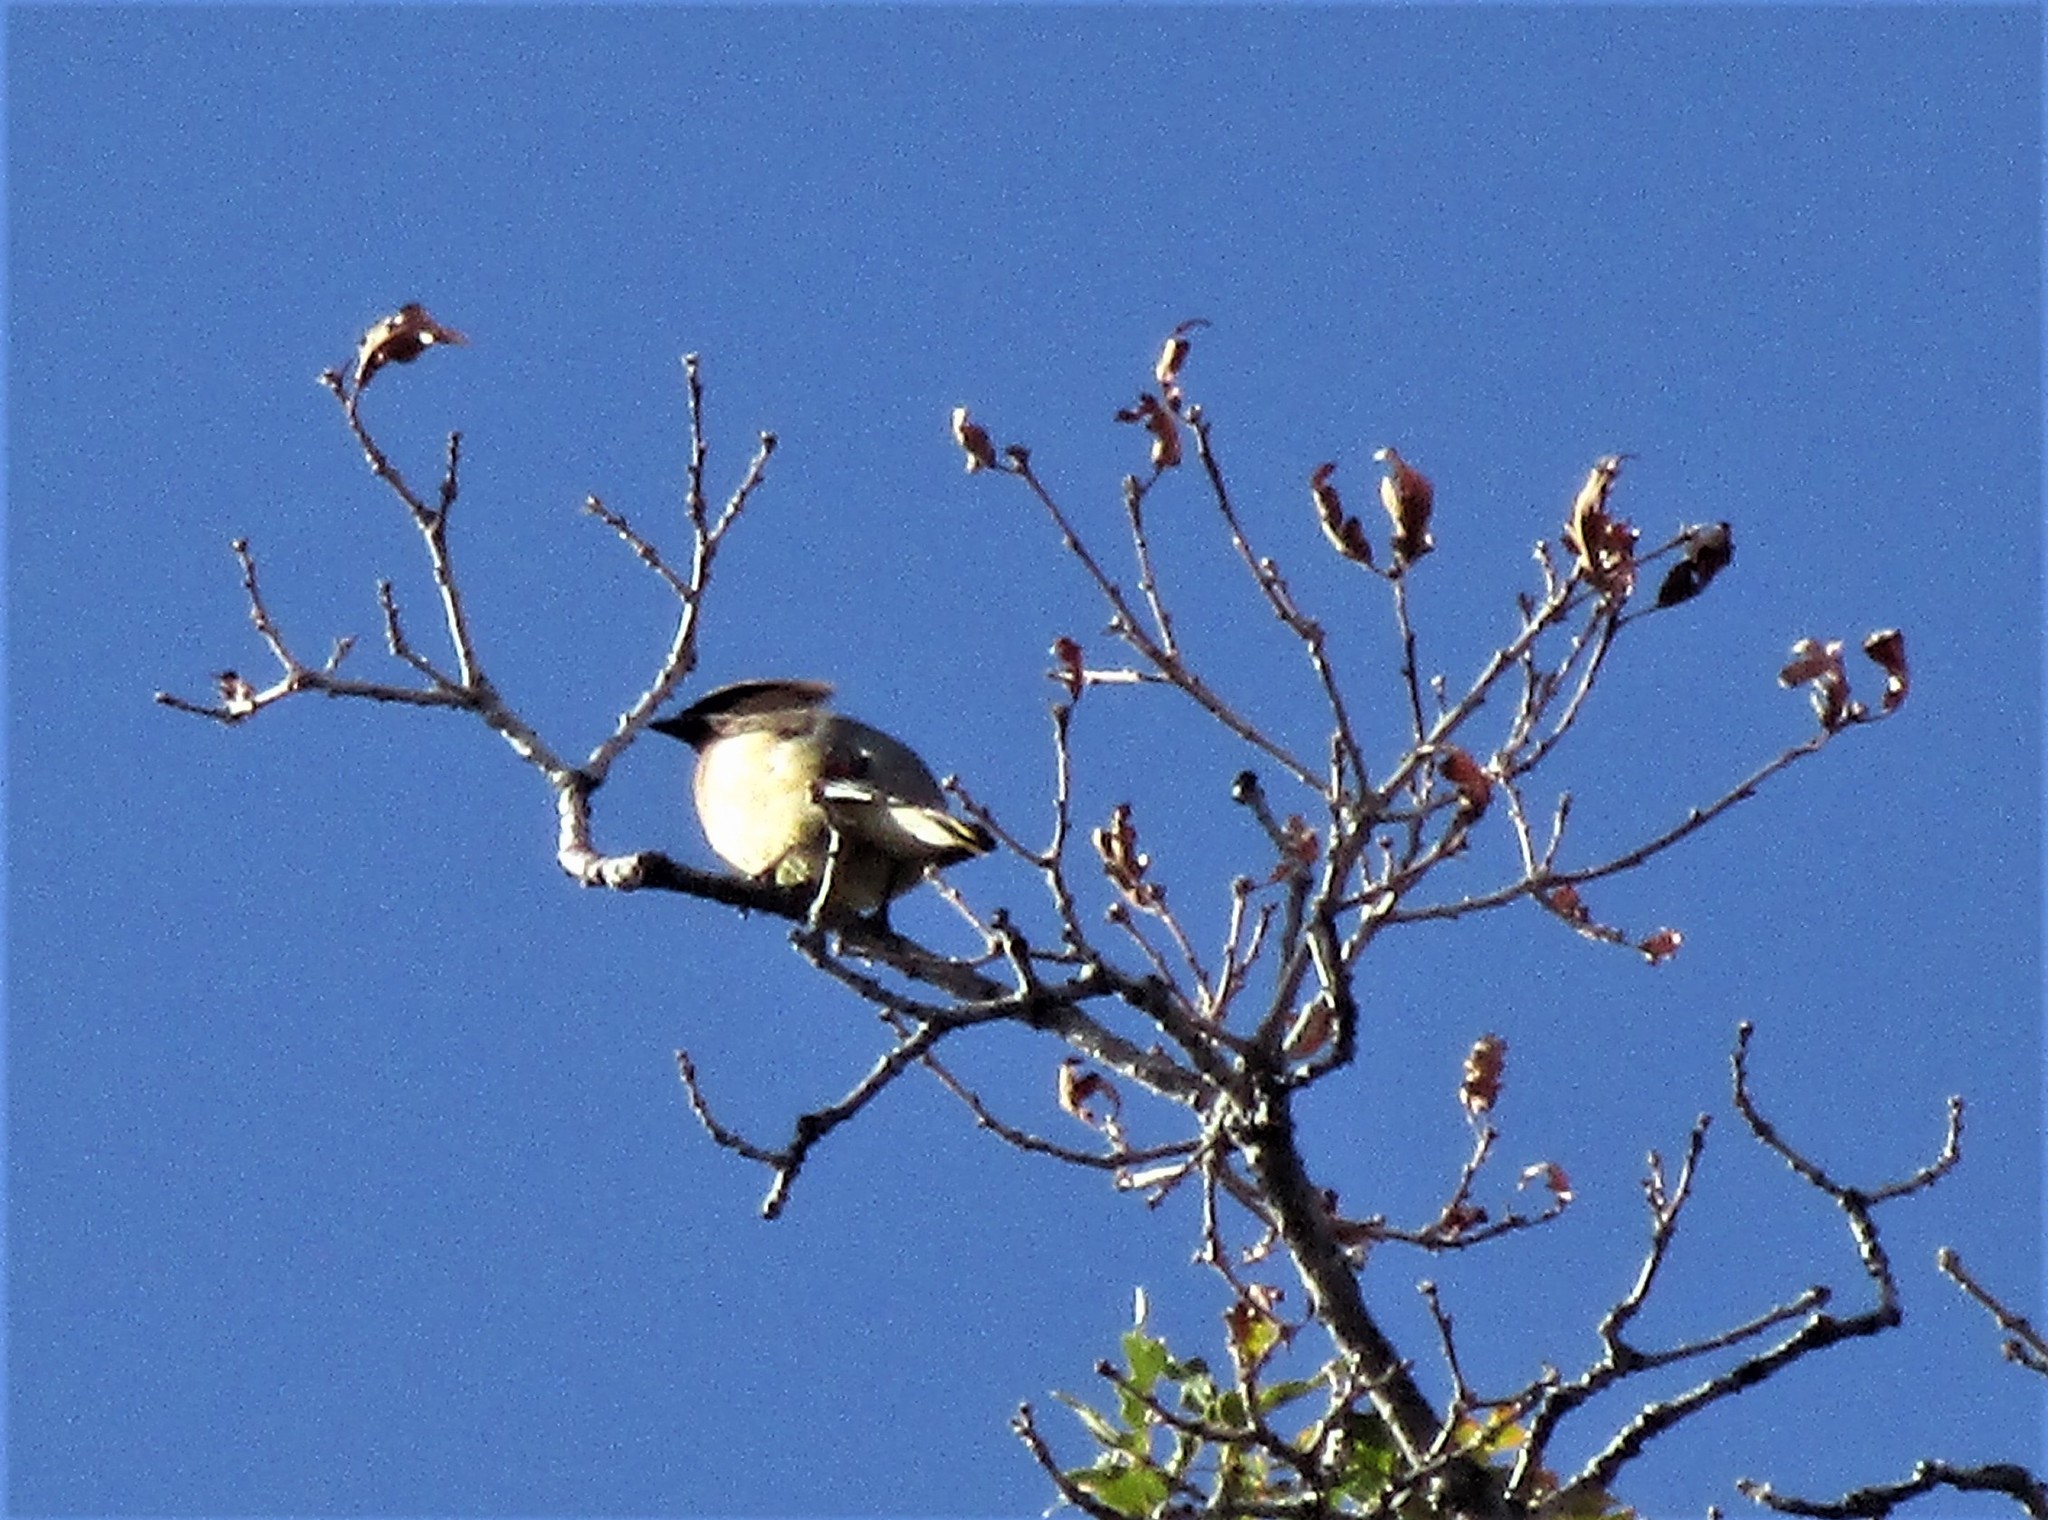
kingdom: Animalia
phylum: Chordata
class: Aves
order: Passeriformes
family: Bombycillidae
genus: Bombycilla
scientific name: Bombycilla cedrorum
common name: Cedar waxwing
